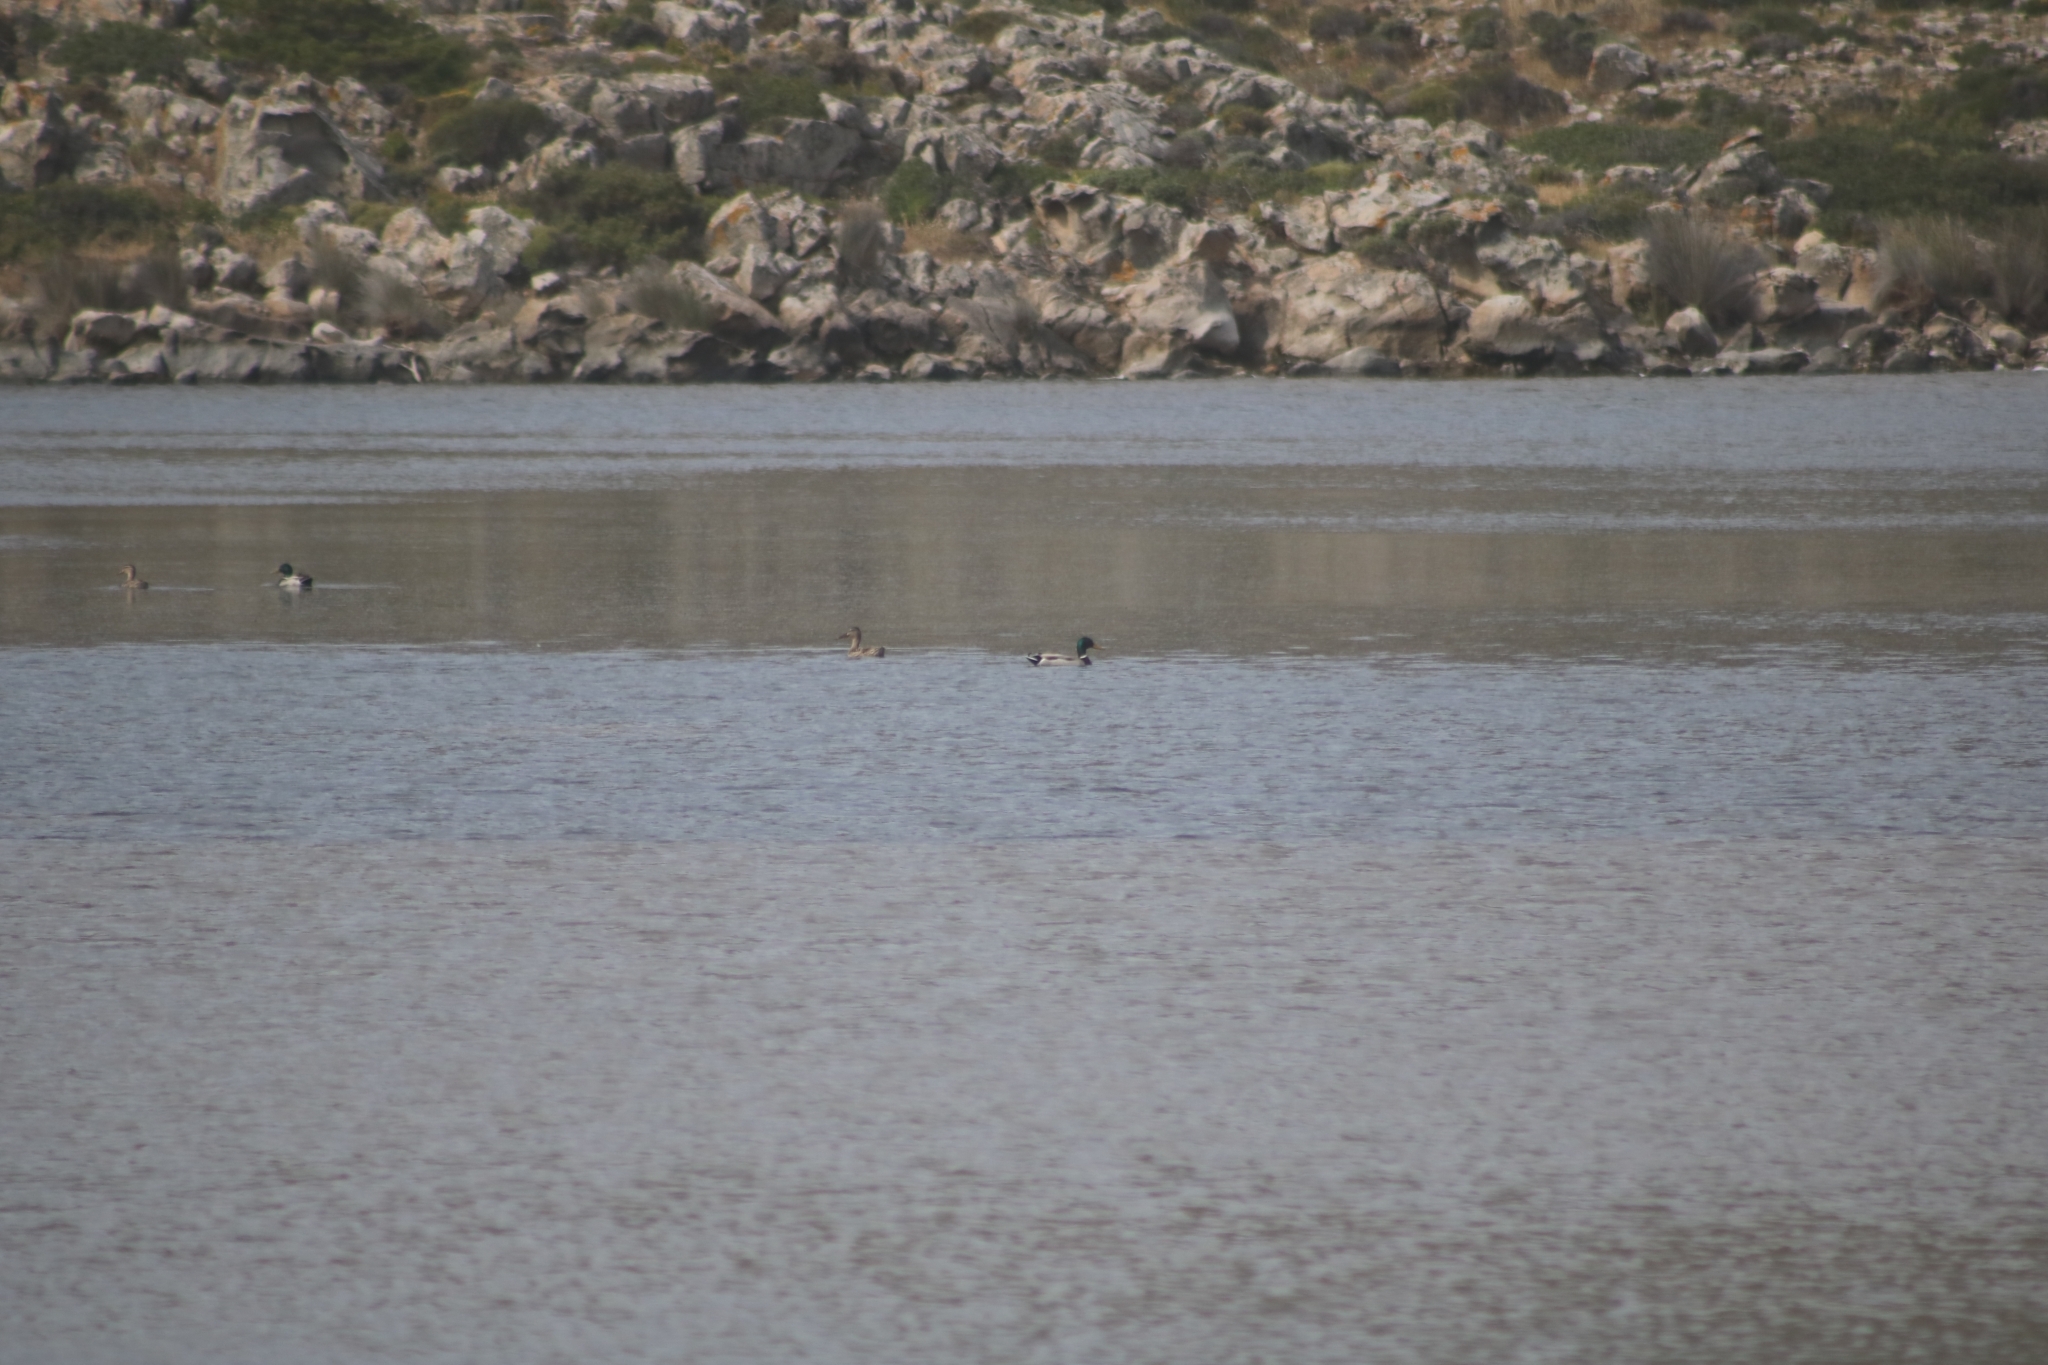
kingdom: Animalia
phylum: Chordata
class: Aves
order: Anseriformes
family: Anatidae
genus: Anas
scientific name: Anas platyrhynchos
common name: Mallard
